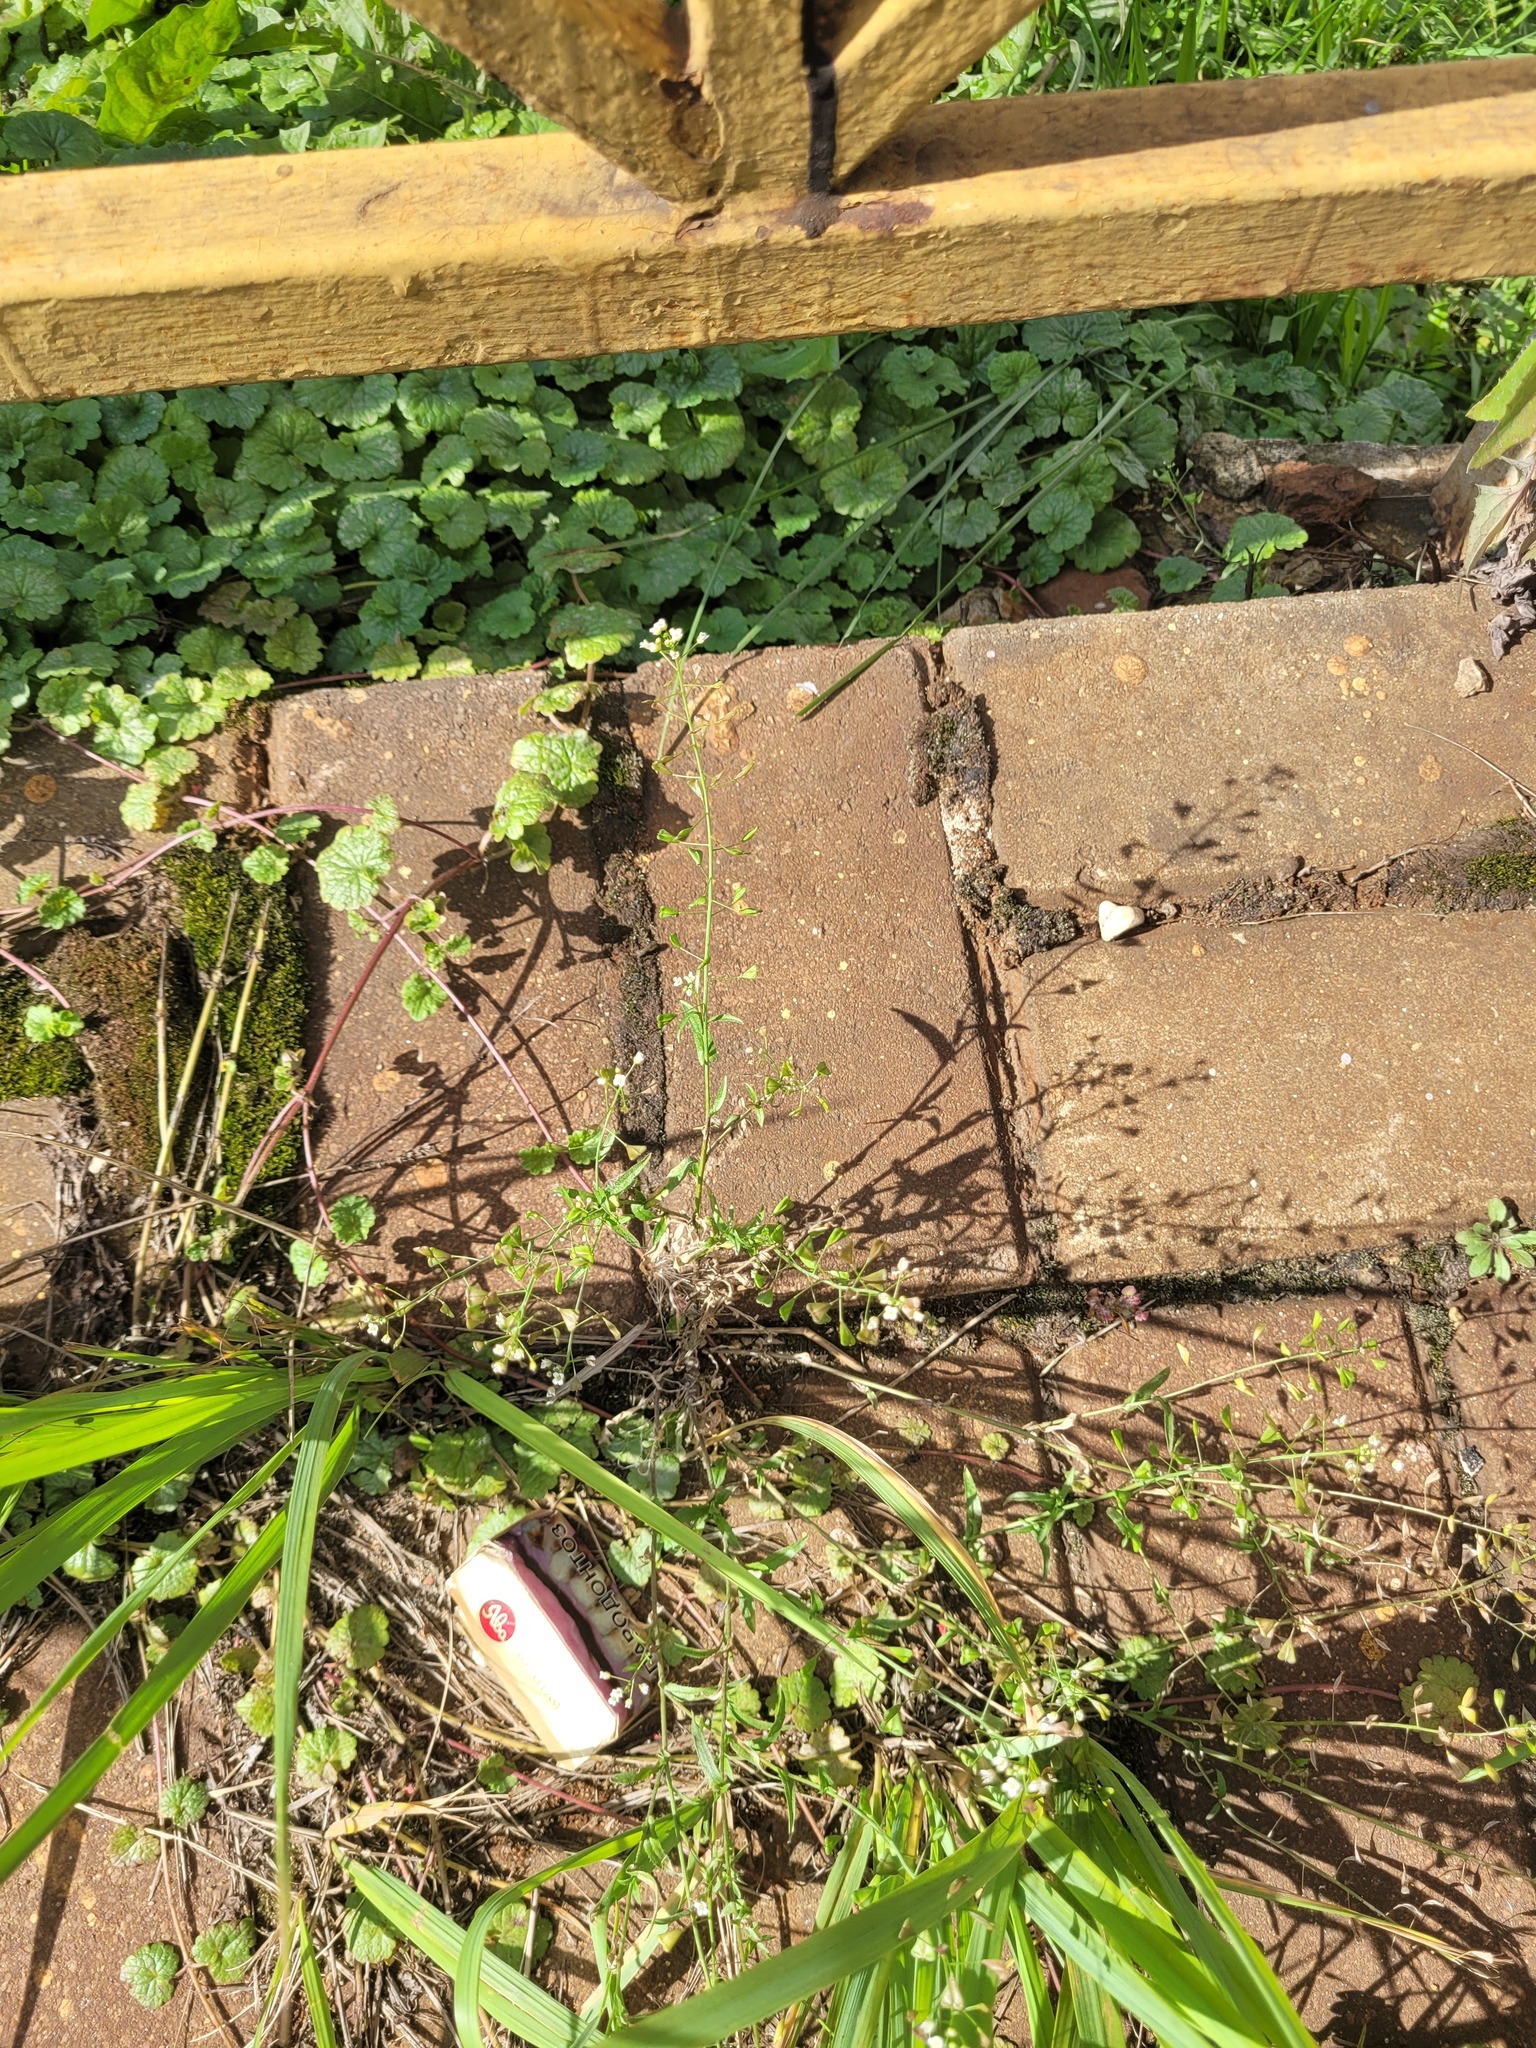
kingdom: Plantae
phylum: Tracheophyta
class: Magnoliopsida
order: Brassicales
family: Brassicaceae
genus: Capsella
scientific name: Capsella bursa-pastoris
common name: Shepherd's purse
